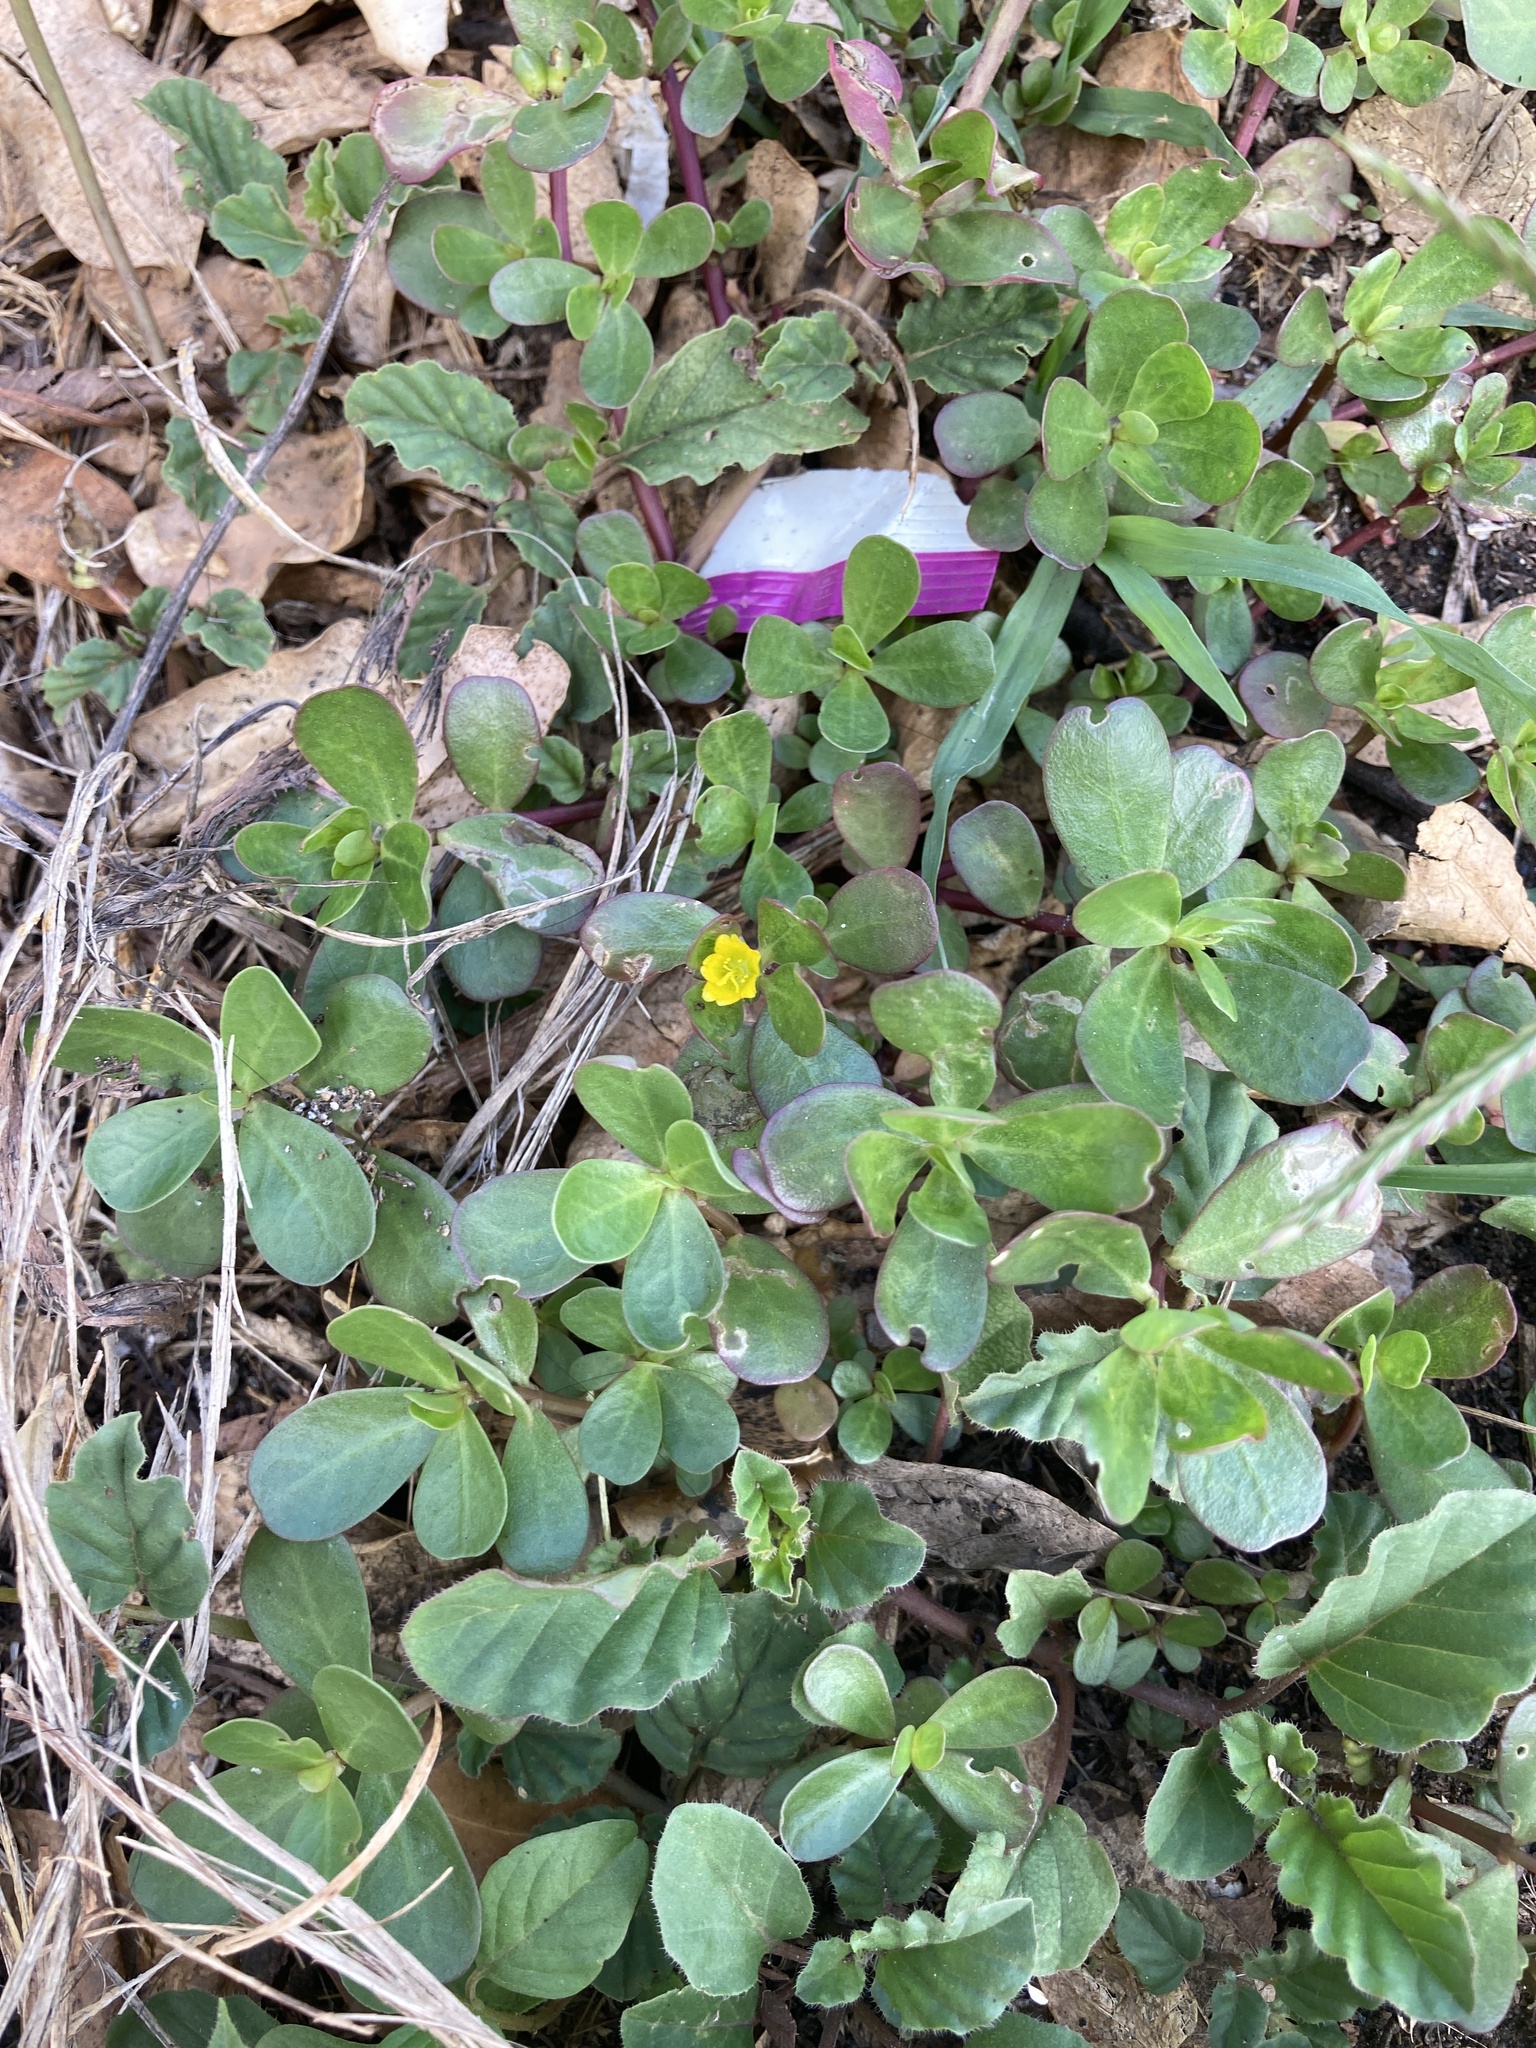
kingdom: Plantae
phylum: Tracheophyta
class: Magnoliopsida
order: Caryophyllales
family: Portulacaceae
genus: Portulaca
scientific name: Portulaca oleracea
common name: Common purslane
